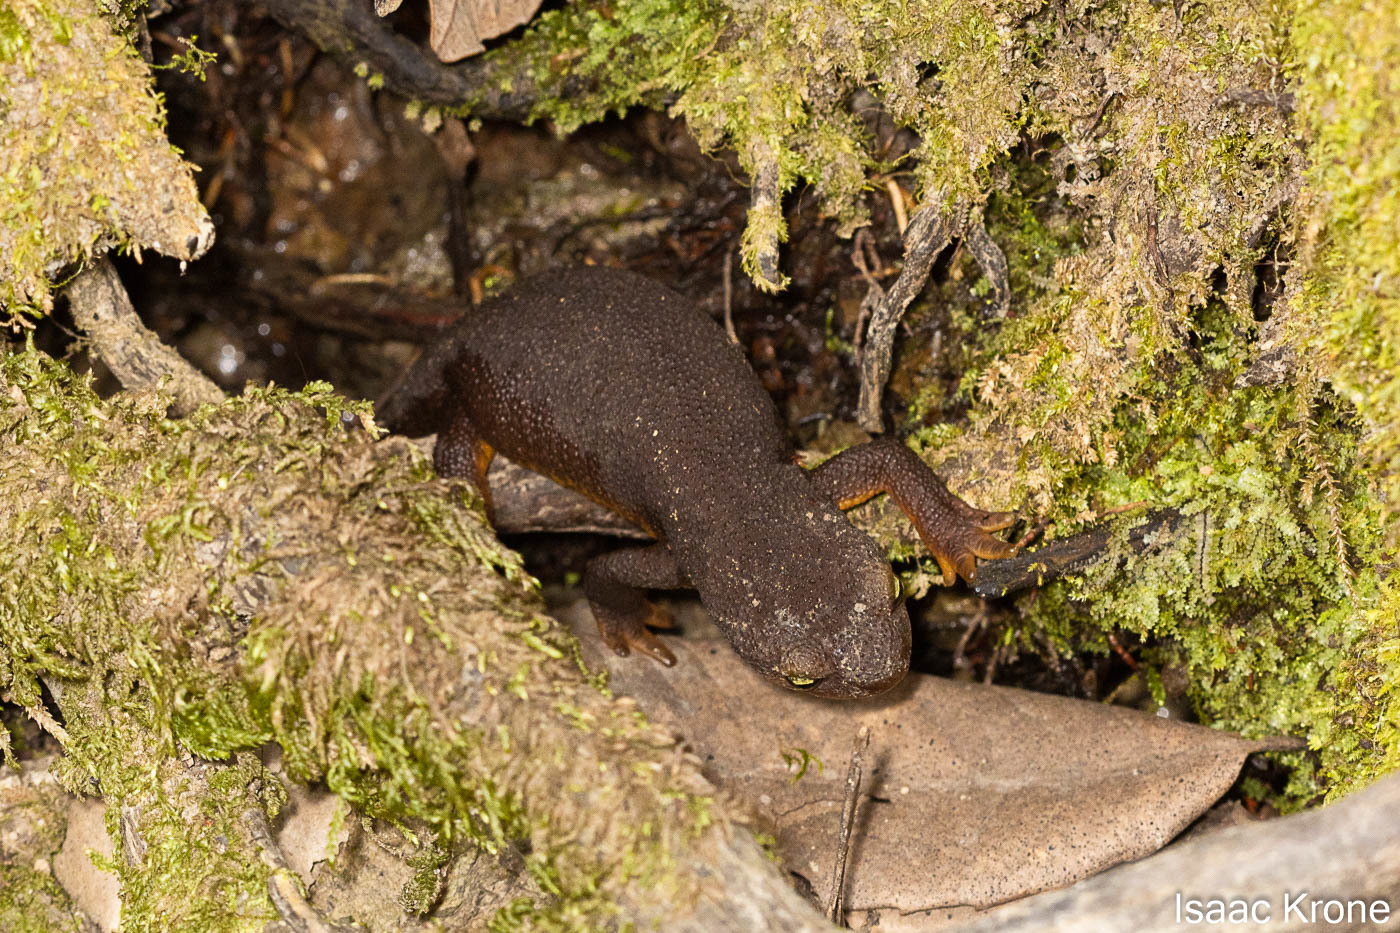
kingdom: Animalia
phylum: Chordata
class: Amphibia
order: Caudata
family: Salamandridae
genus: Taricha
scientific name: Taricha torosa
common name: California newt
